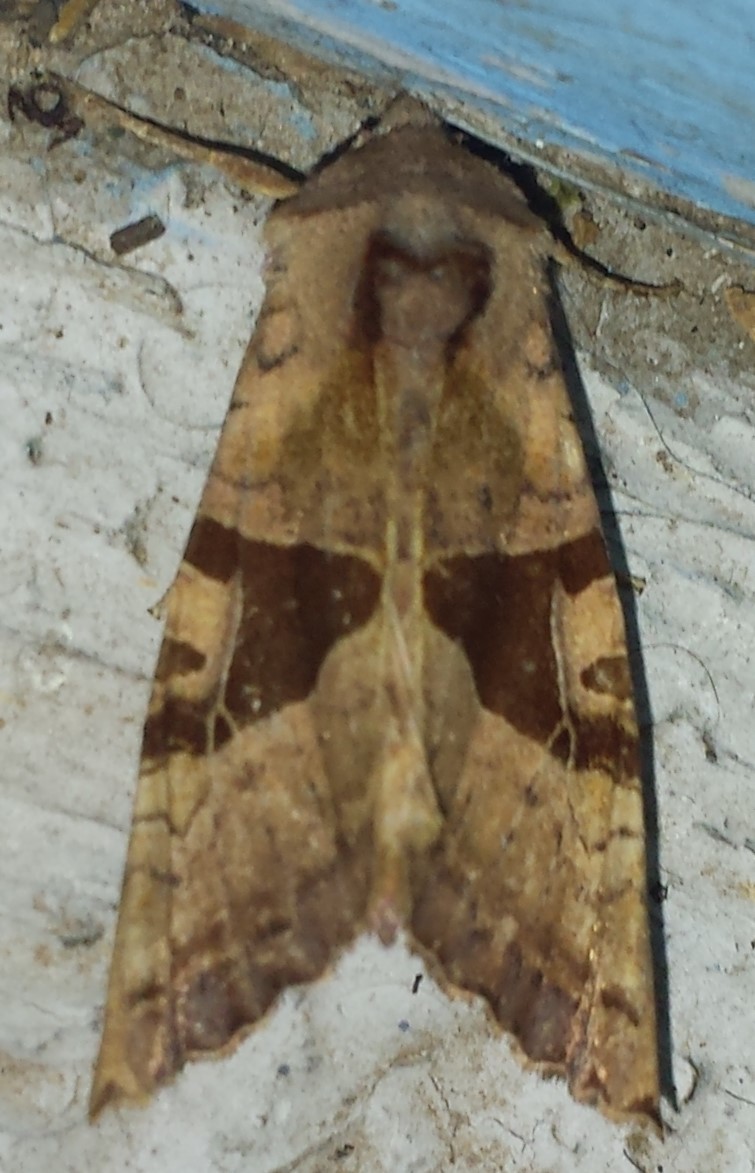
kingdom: Animalia
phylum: Arthropoda
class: Insecta
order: Lepidoptera
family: Noctuidae
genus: Phlogophora
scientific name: Phlogophora periculosa
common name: Brown angle shades
